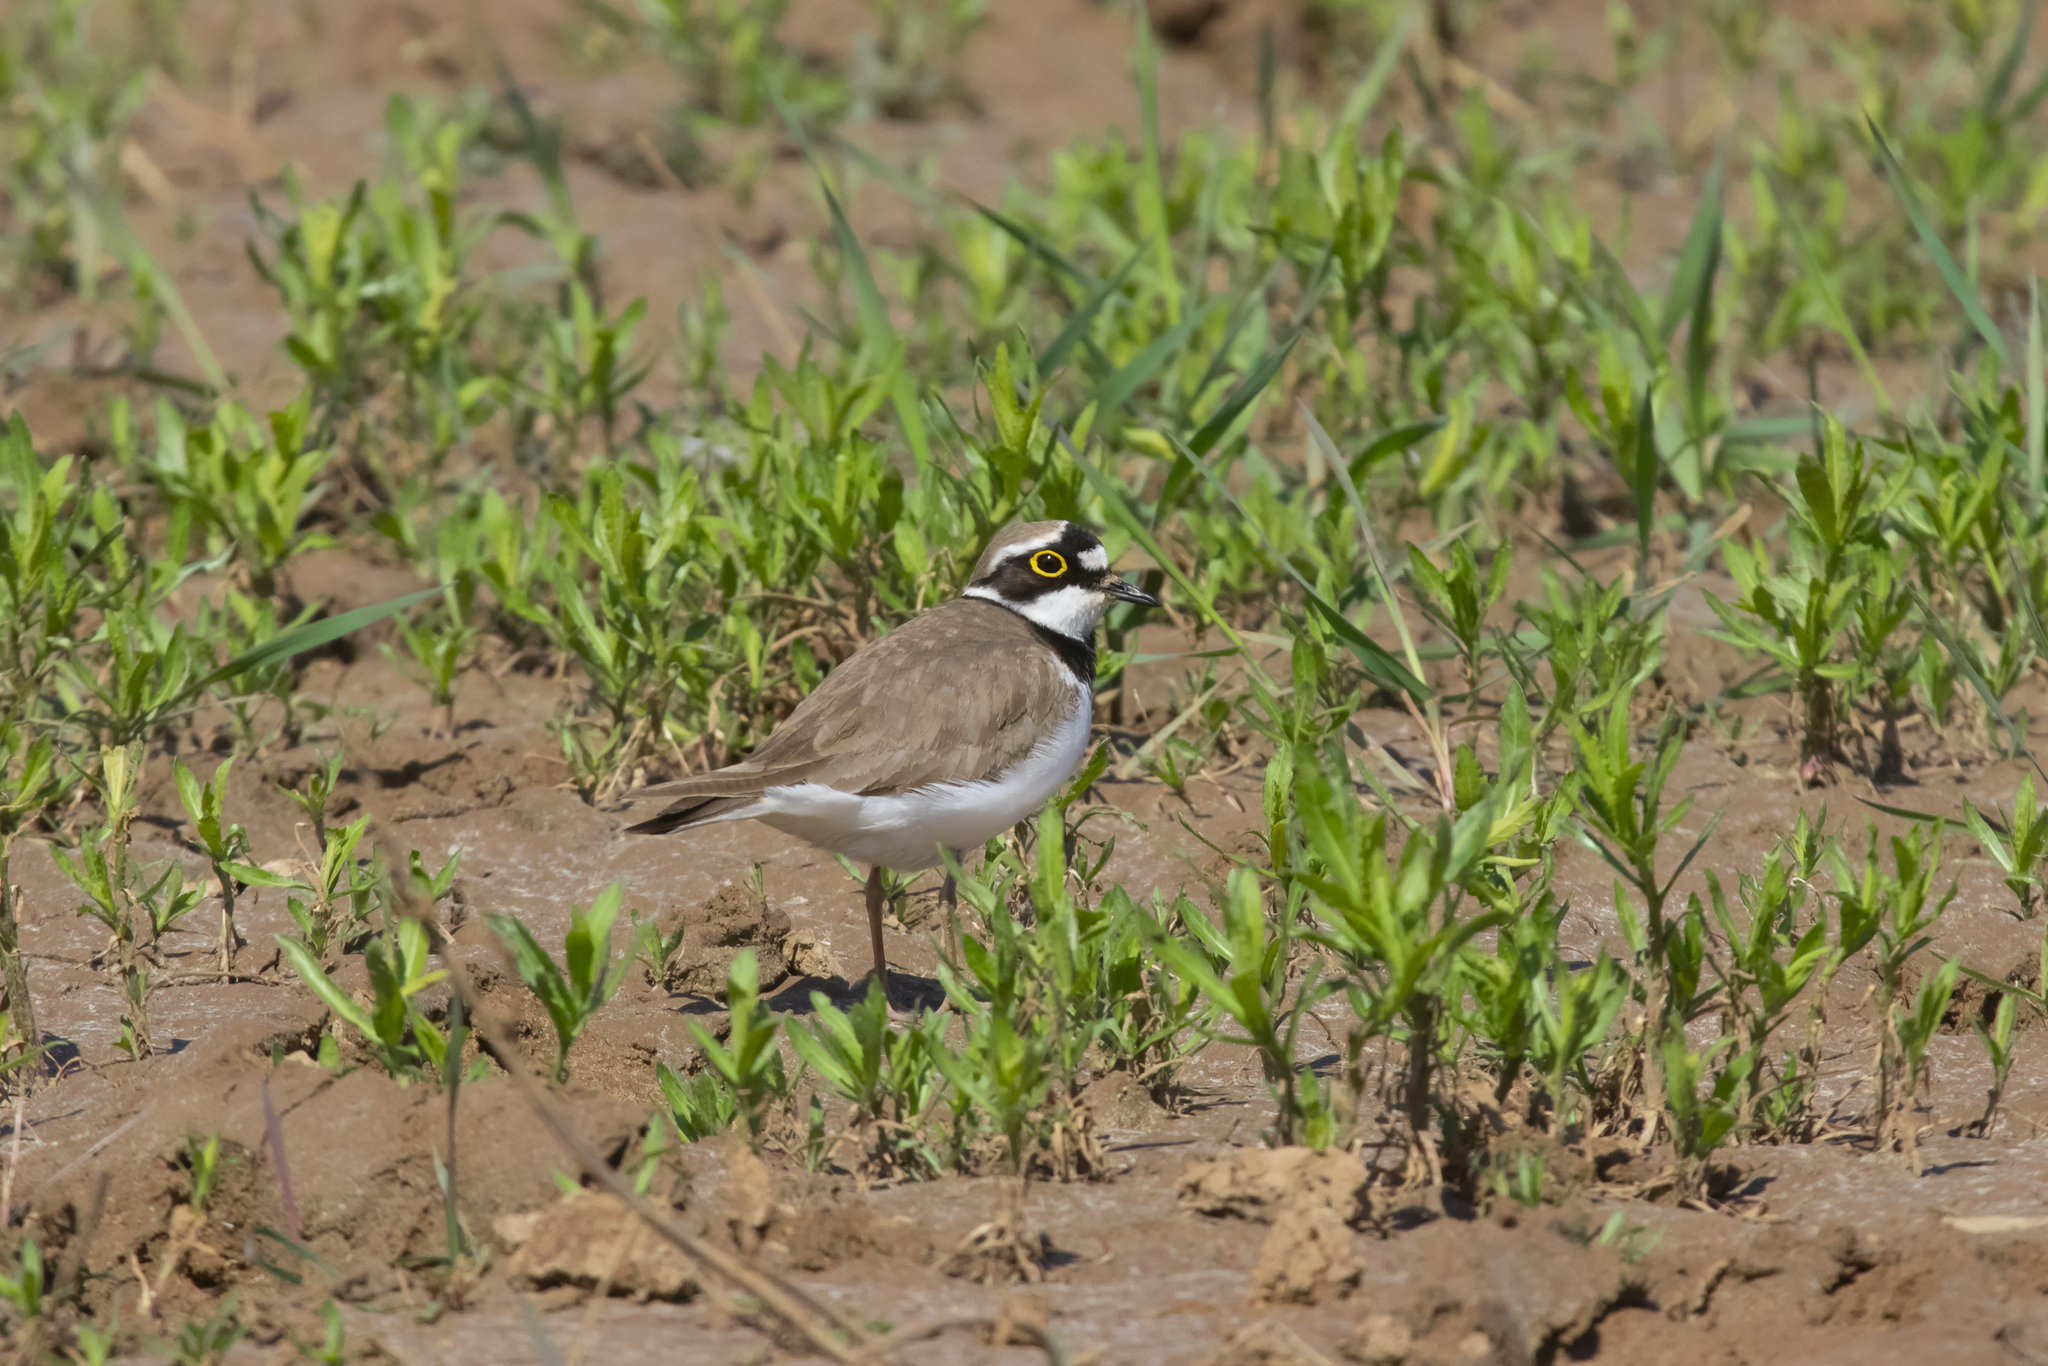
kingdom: Animalia
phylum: Chordata
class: Aves
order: Charadriiformes
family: Charadriidae
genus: Charadrius
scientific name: Charadrius dubius
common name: Little ringed plover
